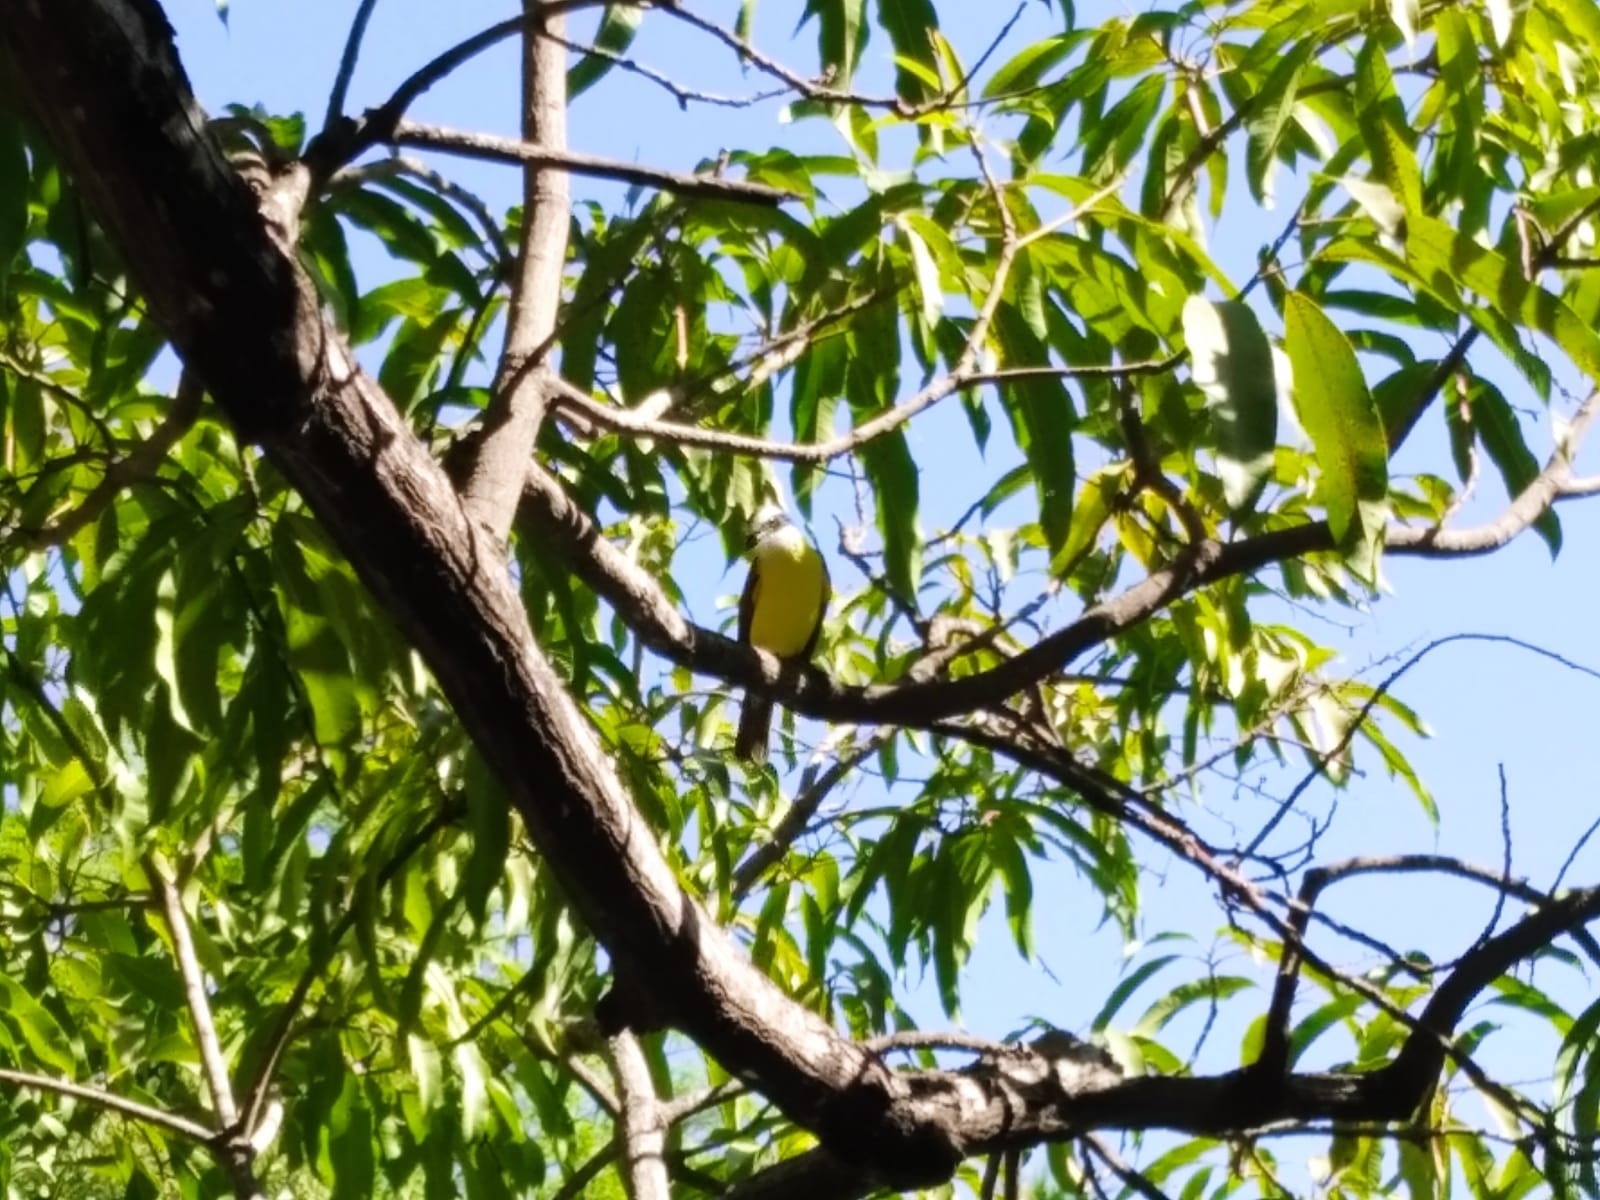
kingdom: Animalia
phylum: Chordata
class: Aves
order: Passeriformes
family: Tyrannidae
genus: Pitangus
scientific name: Pitangus sulphuratus
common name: Great kiskadee
